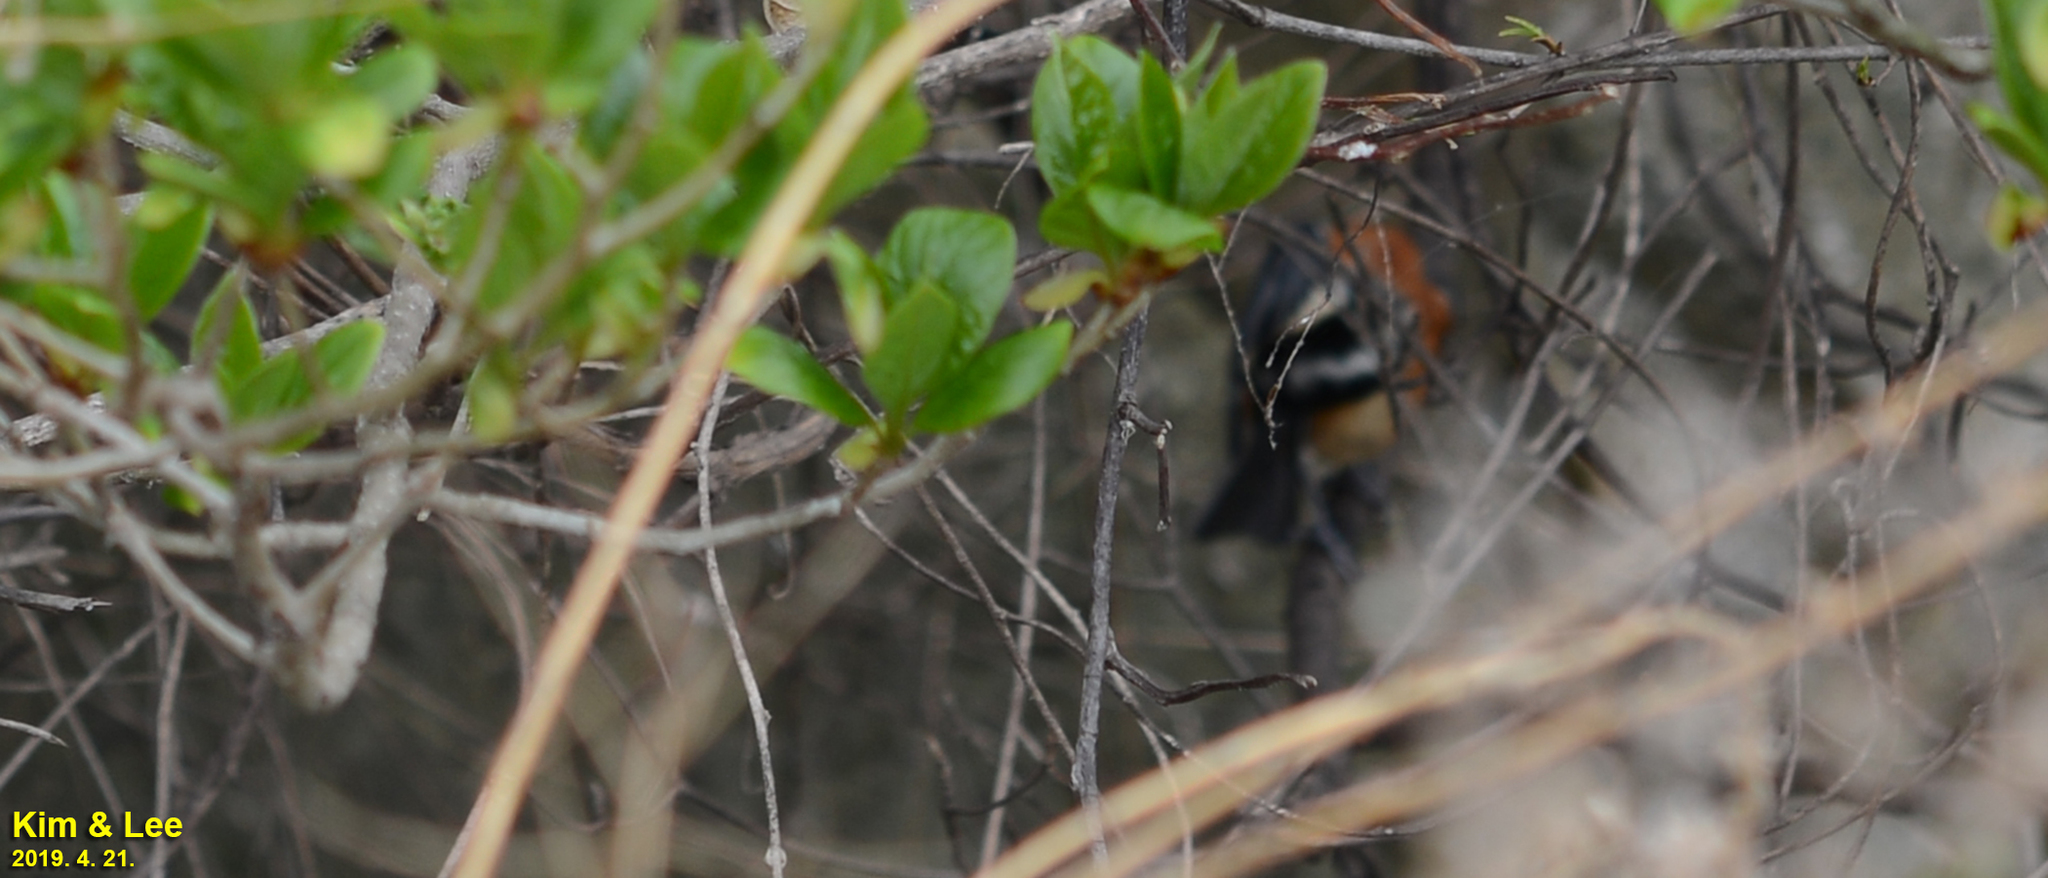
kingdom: Animalia
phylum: Chordata
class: Aves
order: Passeriformes
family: Paridae
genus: Poecile
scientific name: Poecile varius
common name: Varied tit
